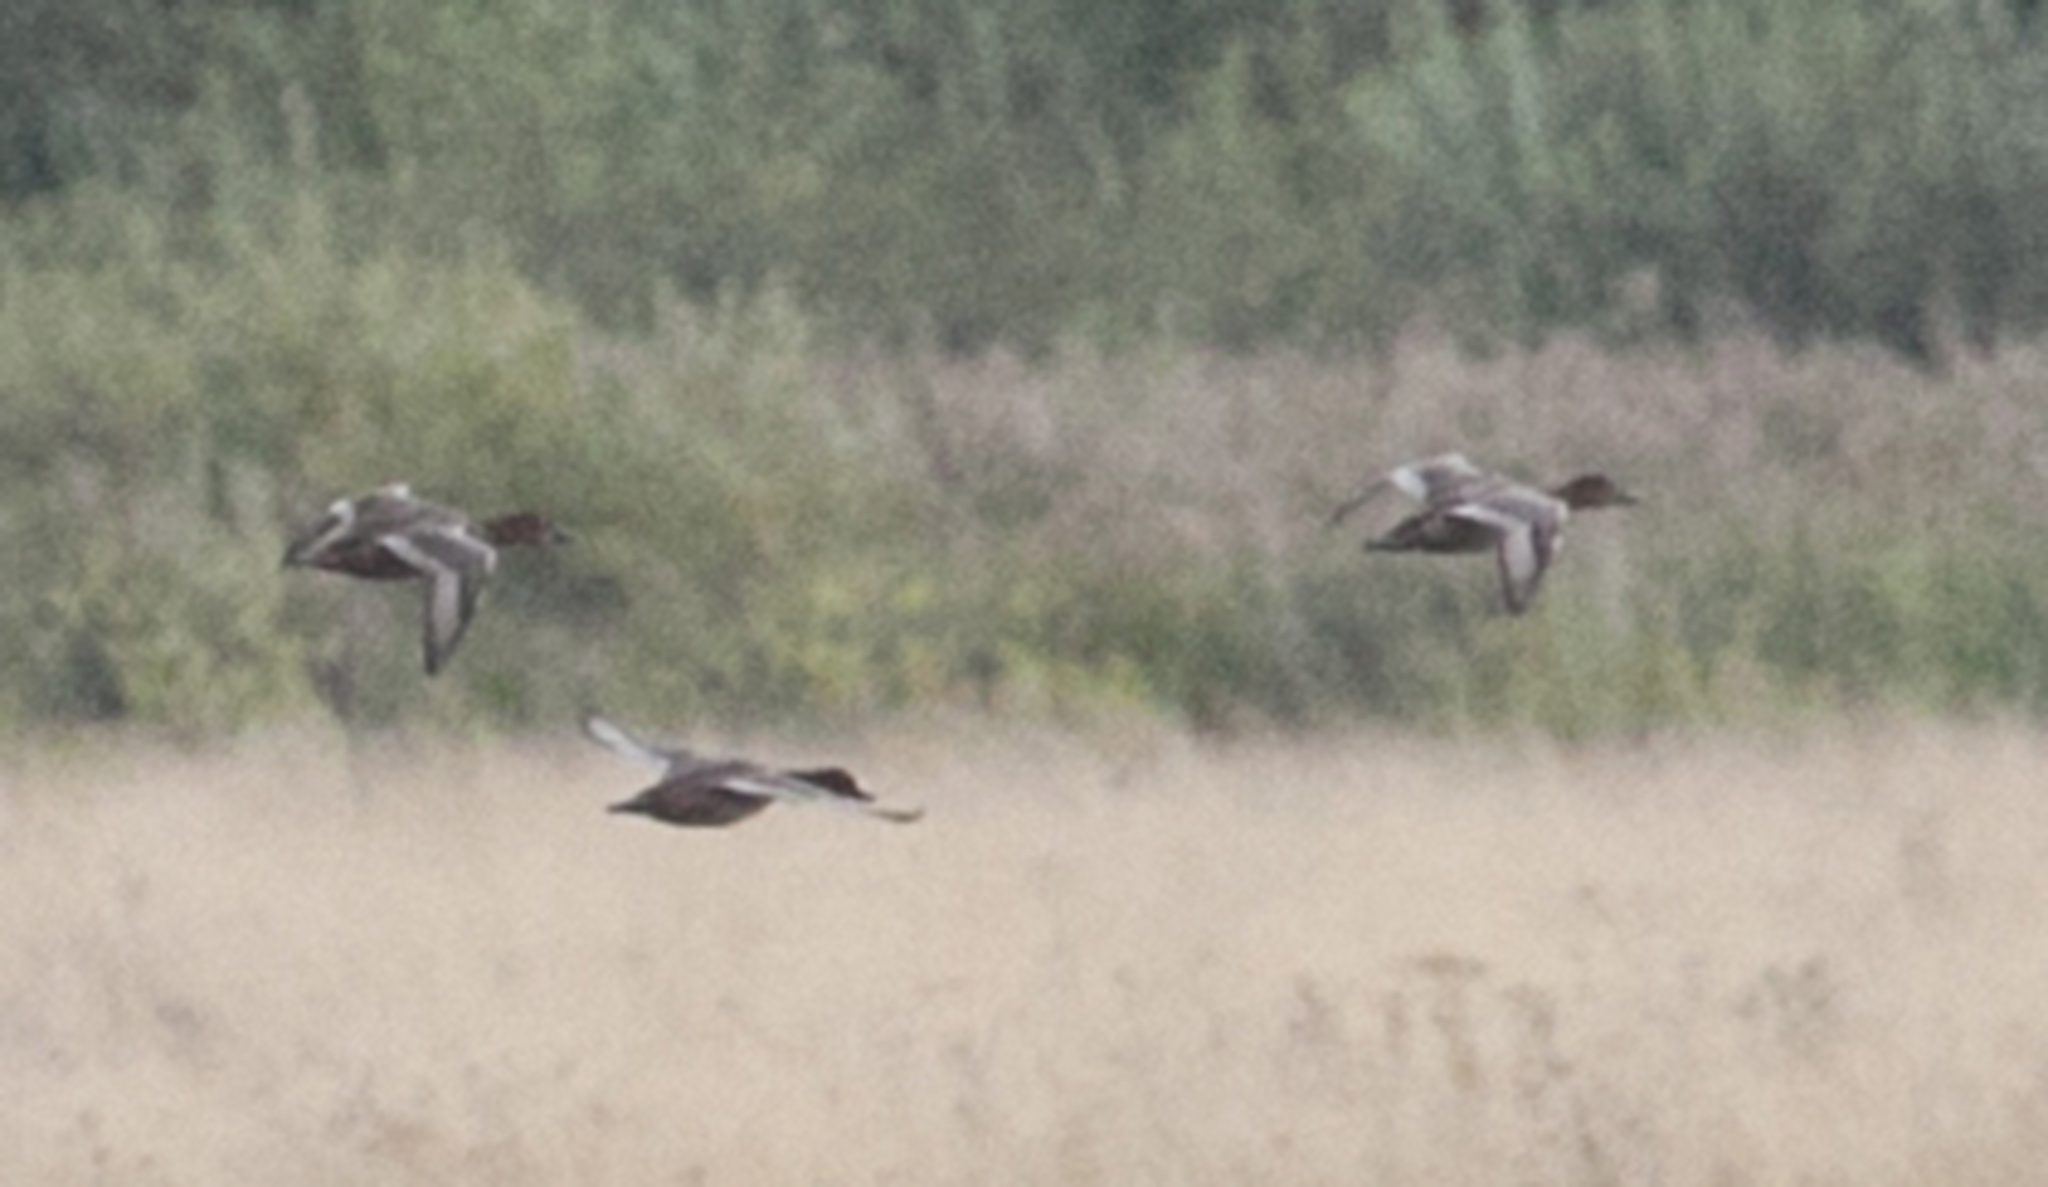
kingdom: Animalia
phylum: Chordata
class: Aves
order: Anseriformes
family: Anatidae
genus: Aythya
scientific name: Aythya ferina
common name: Common pochard
